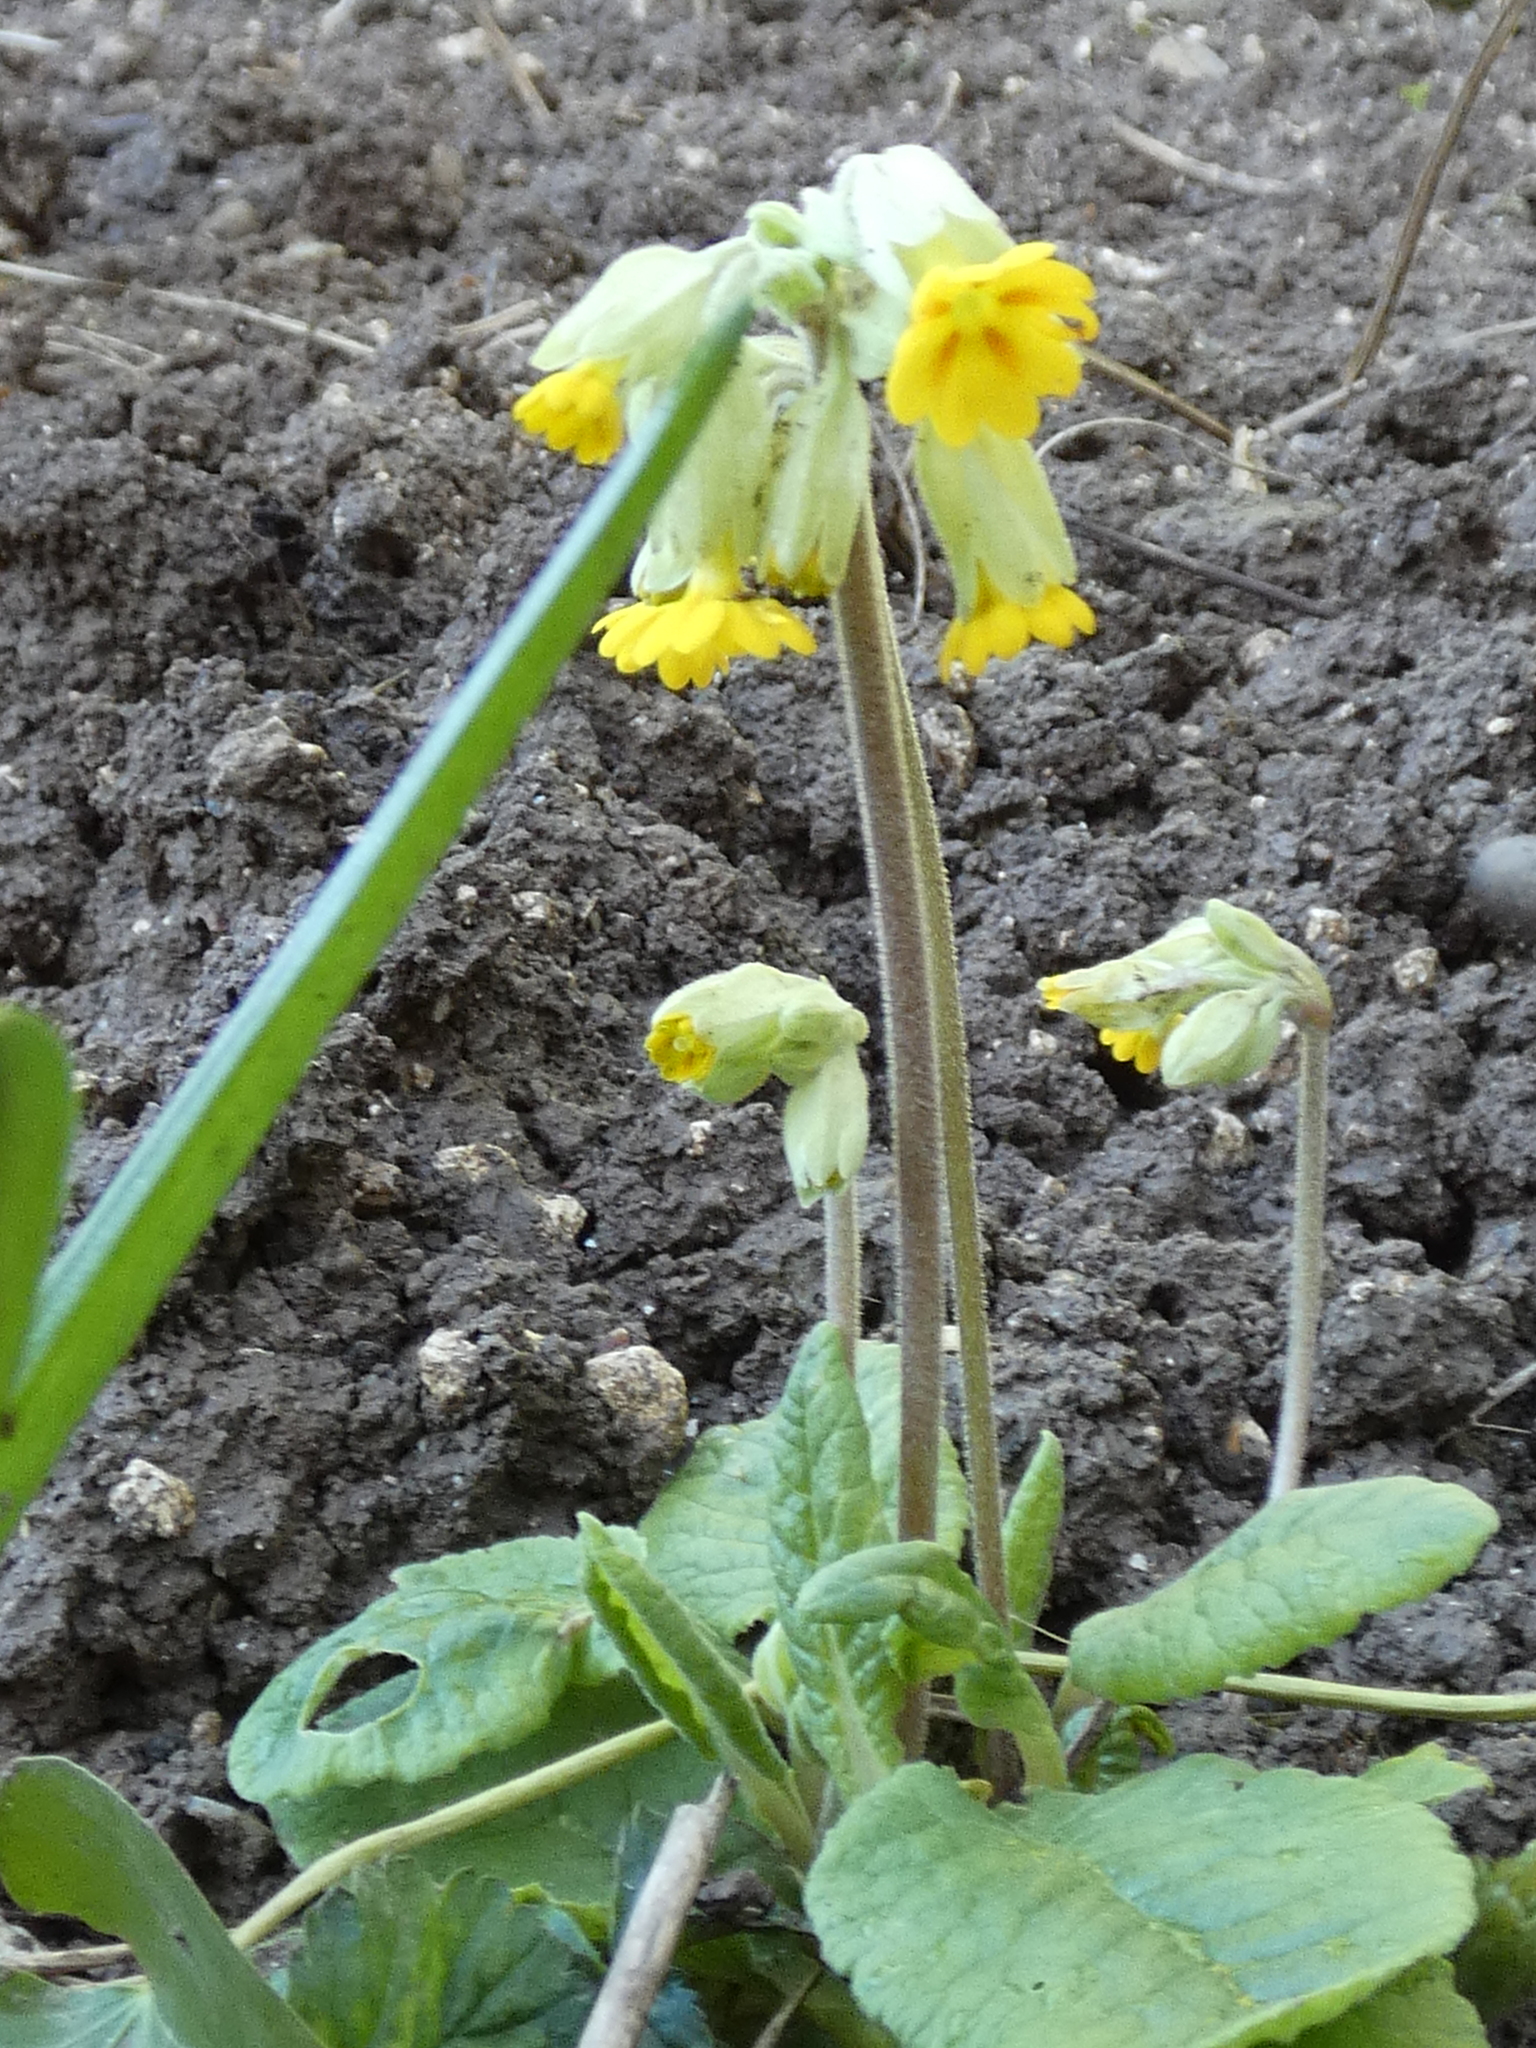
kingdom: Plantae
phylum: Tracheophyta
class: Magnoliopsida
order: Ericales
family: Primulaceae
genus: Primula
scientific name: Primula veris
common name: Cowslip
